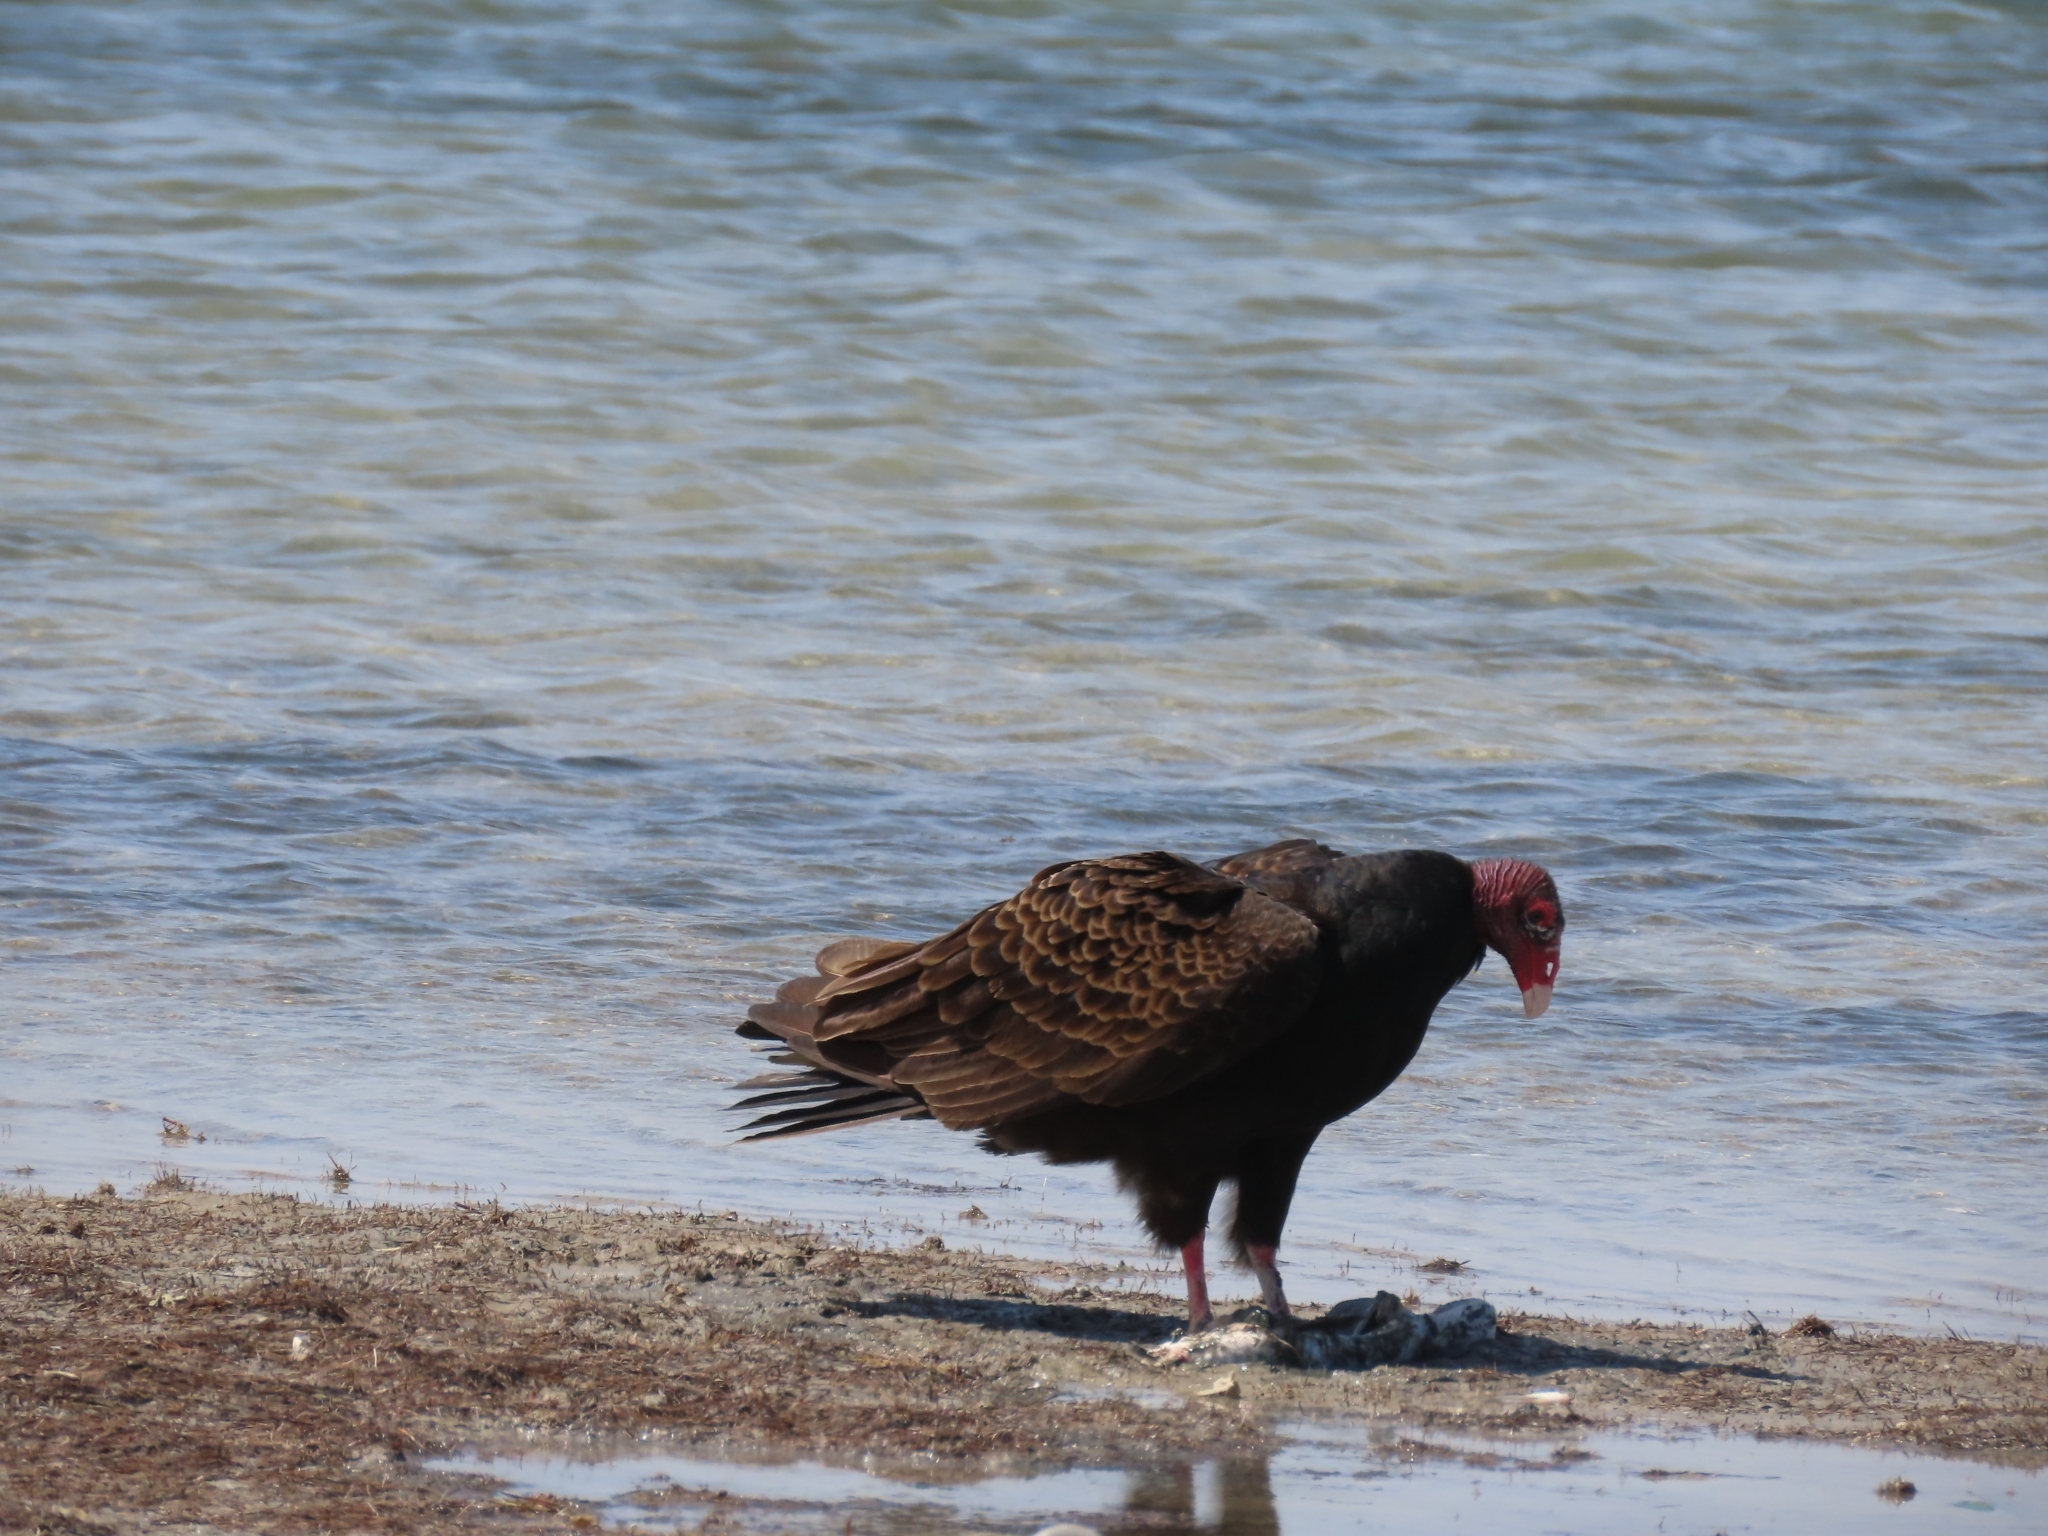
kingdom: Animalia
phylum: Chordata
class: Aves
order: Accipitriformes
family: Cathartidae
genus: Cathartes
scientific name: Cathartes aura
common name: Turkey vulture
